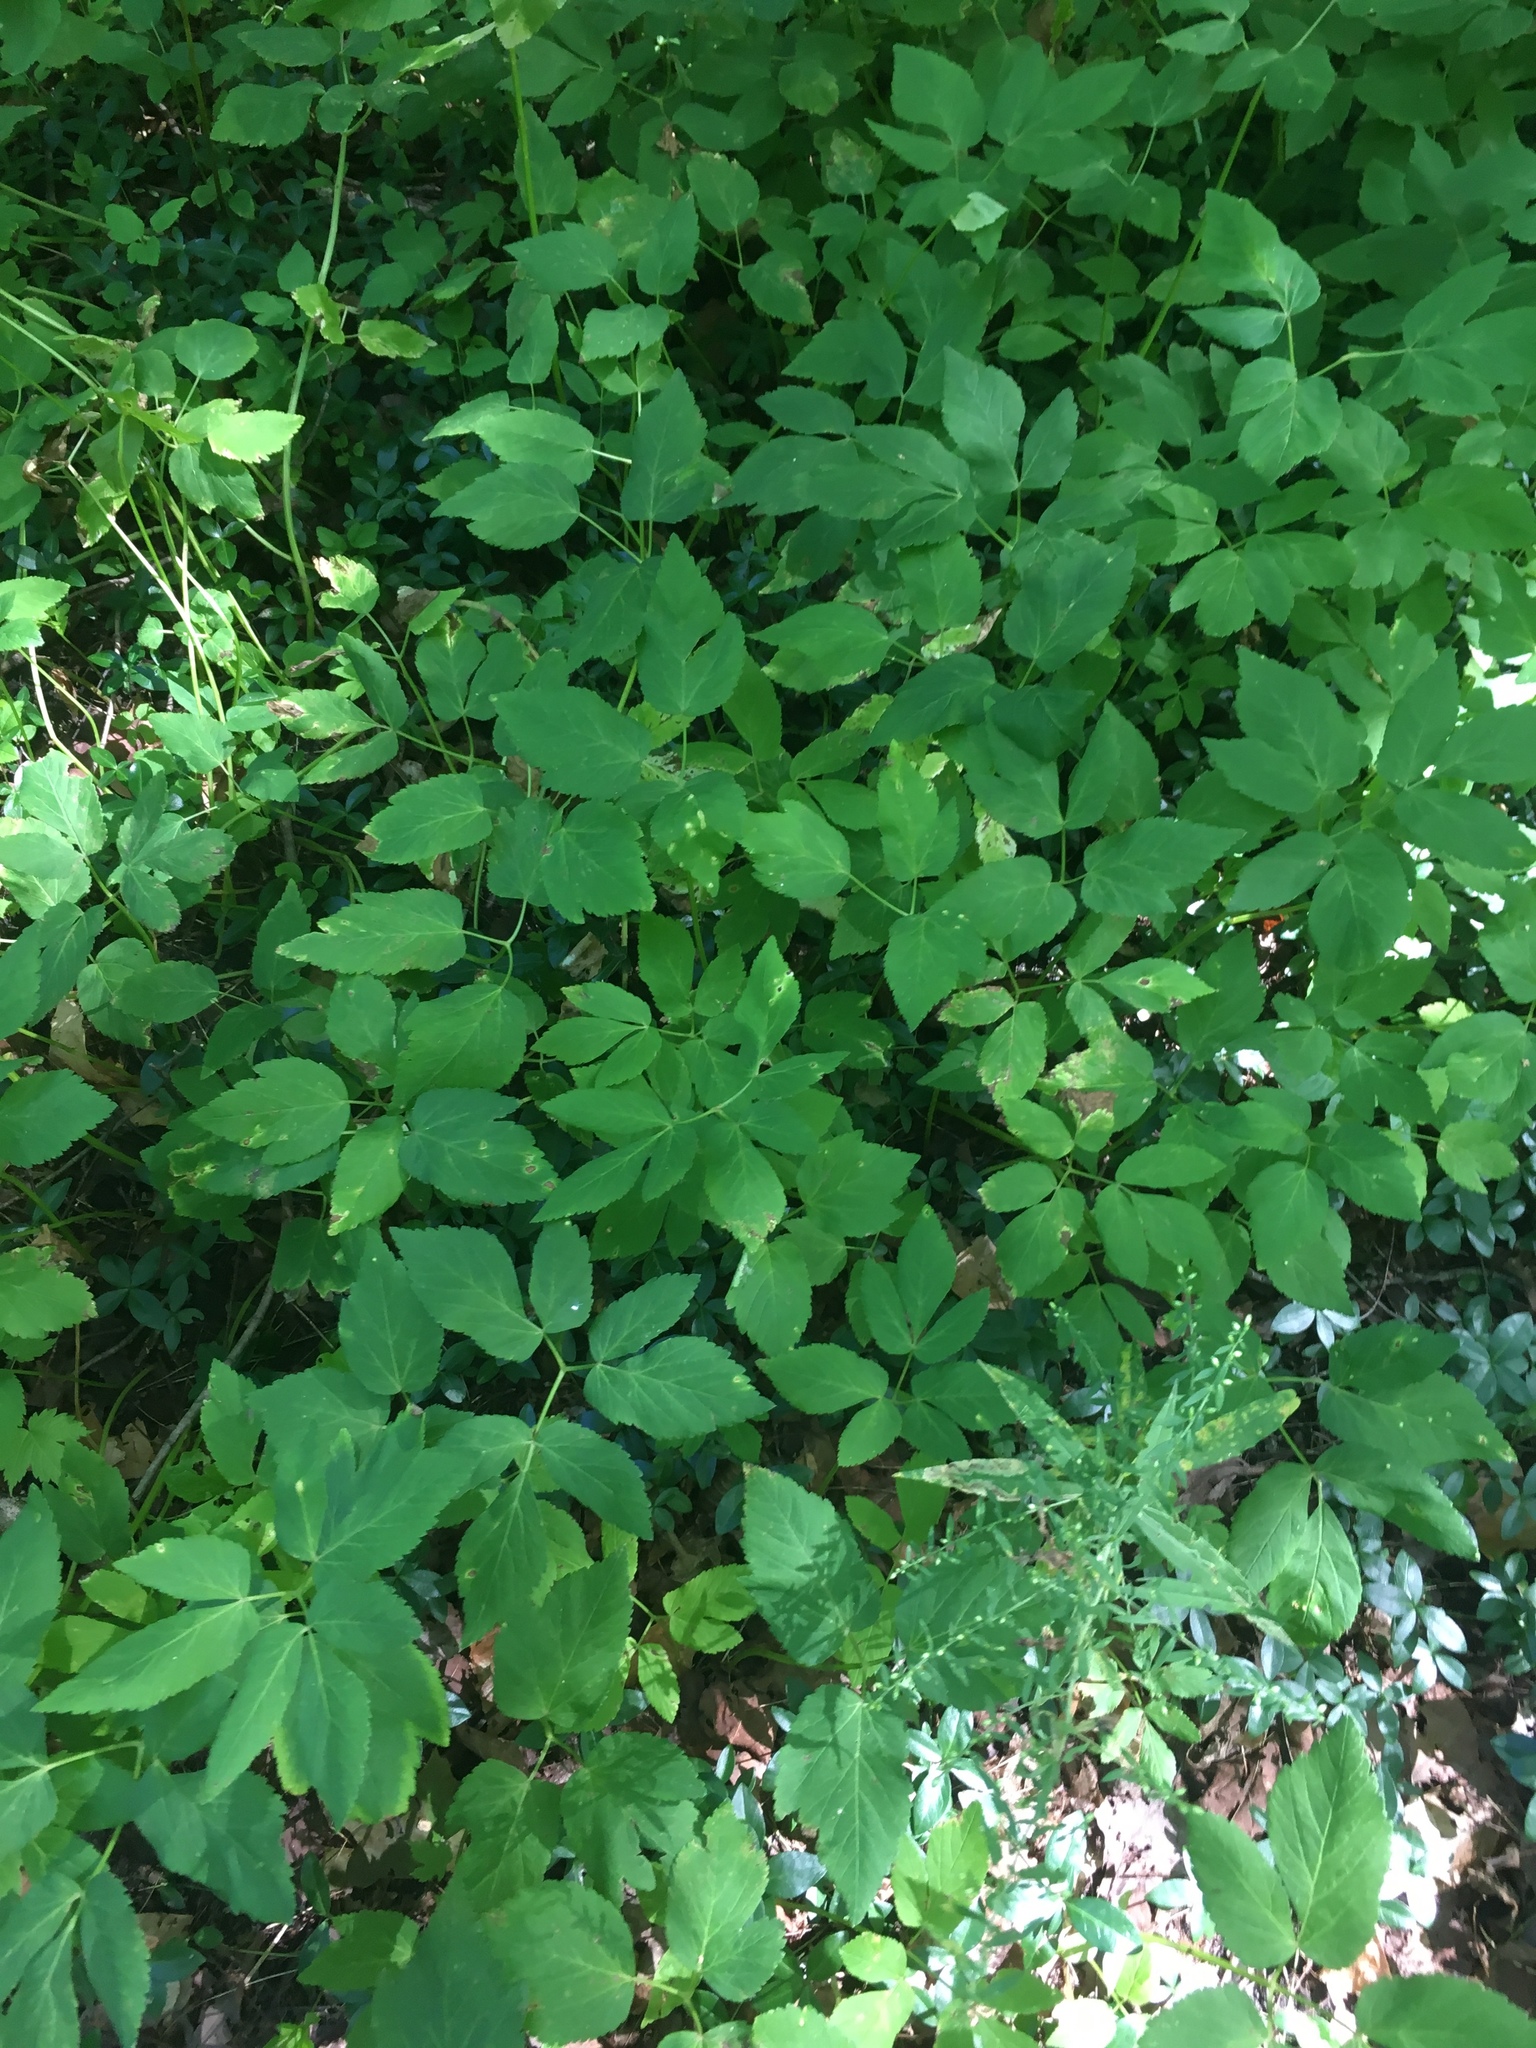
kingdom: Plantae
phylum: Tracheophyta
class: Magnoliopsida
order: Apiales
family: Apiaceae
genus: Aegopodium
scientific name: Aegopodium podagraria
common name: Ground-elder
